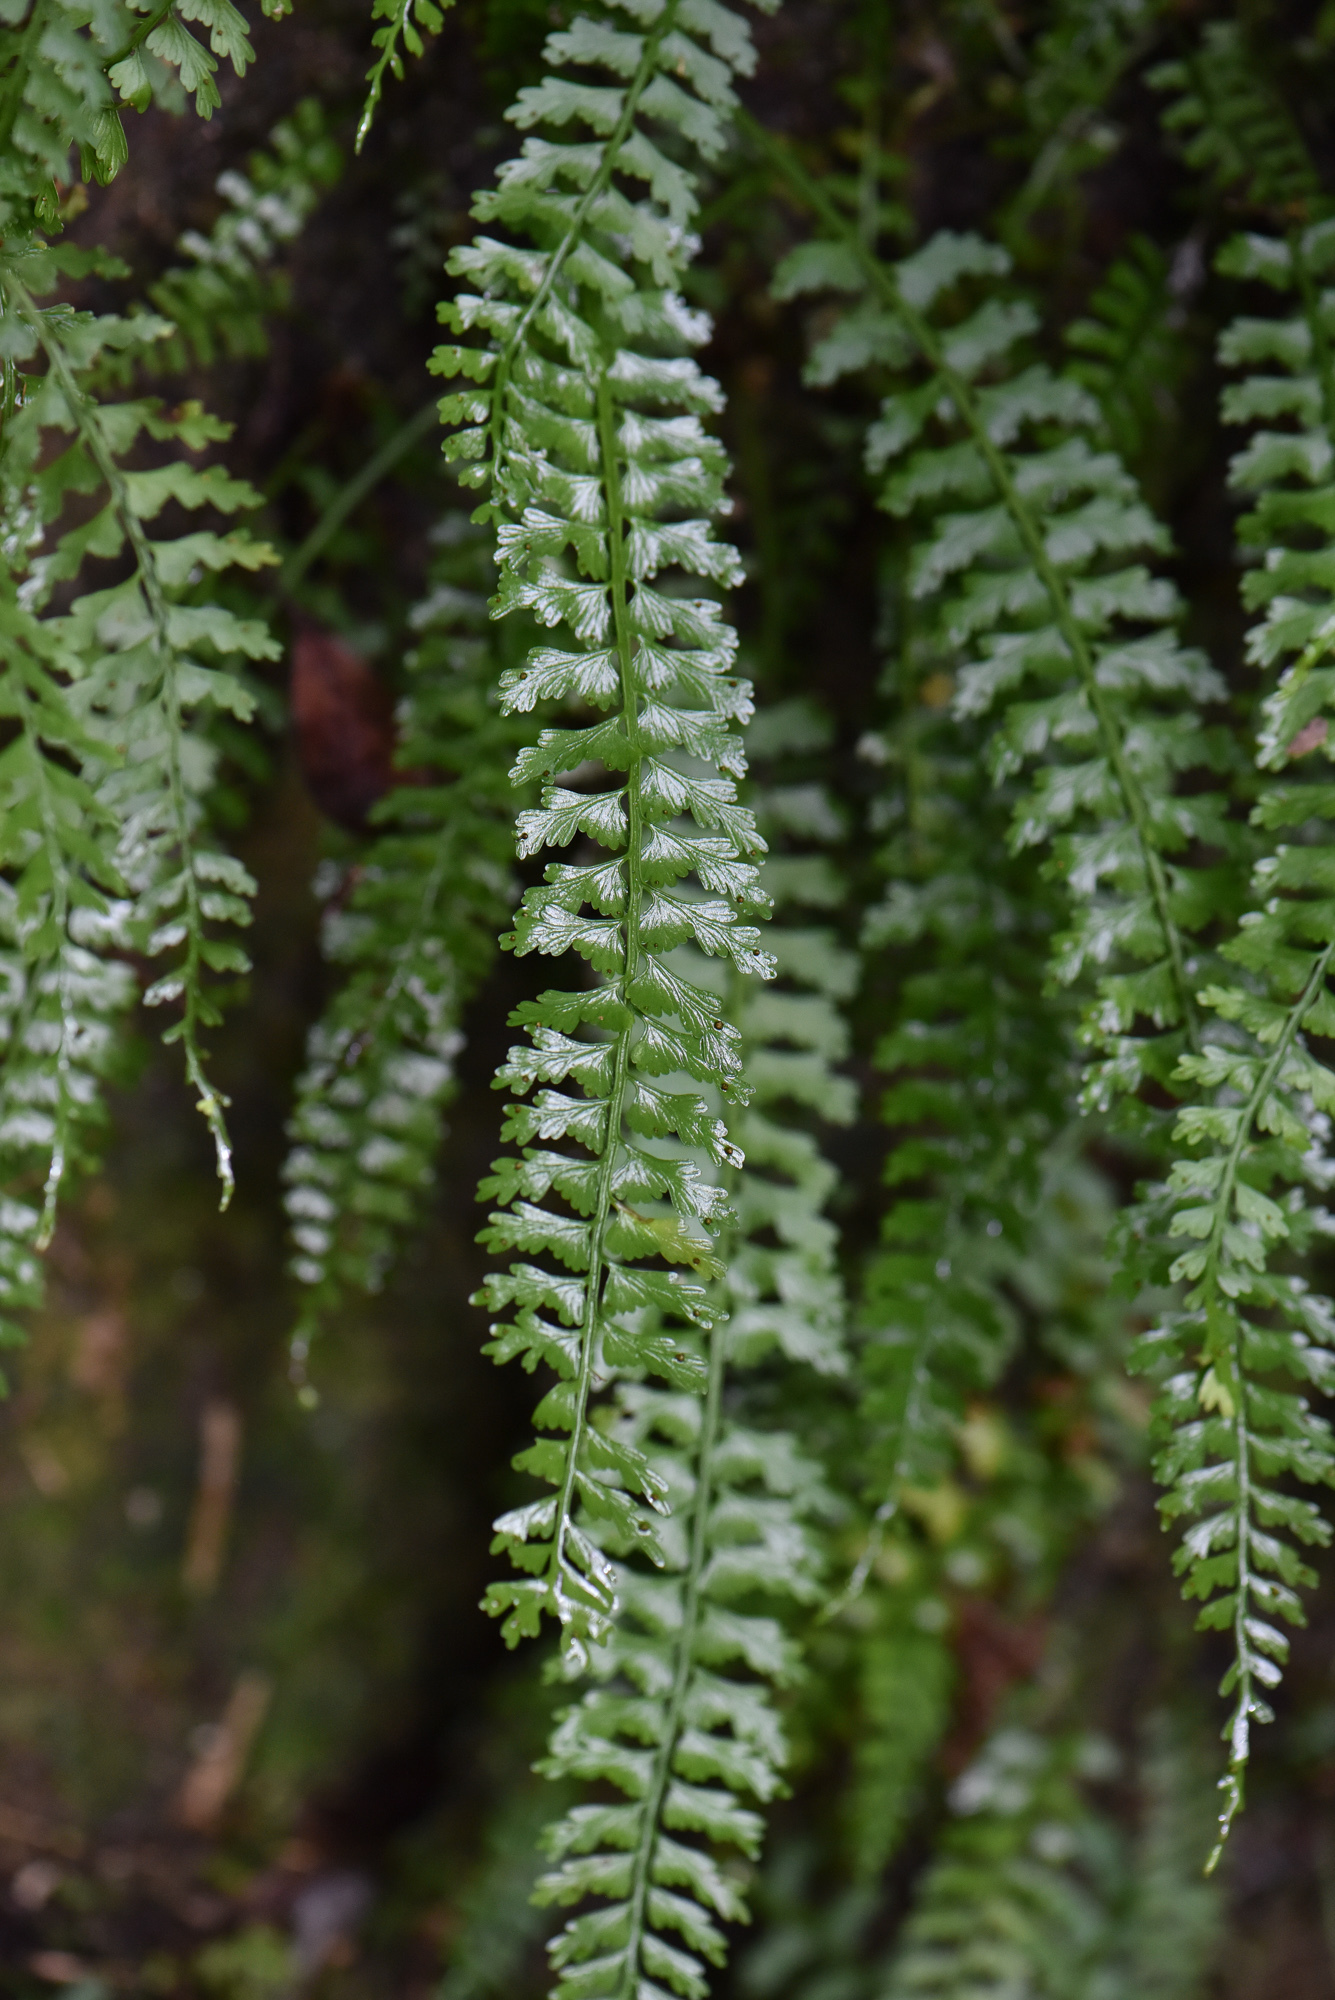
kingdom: Plantae
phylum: Tracheophyta
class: Polypodiopsida
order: Polypodiales
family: Aspleniaceae
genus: Asplenium
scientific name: Asplenium gueinzianum
